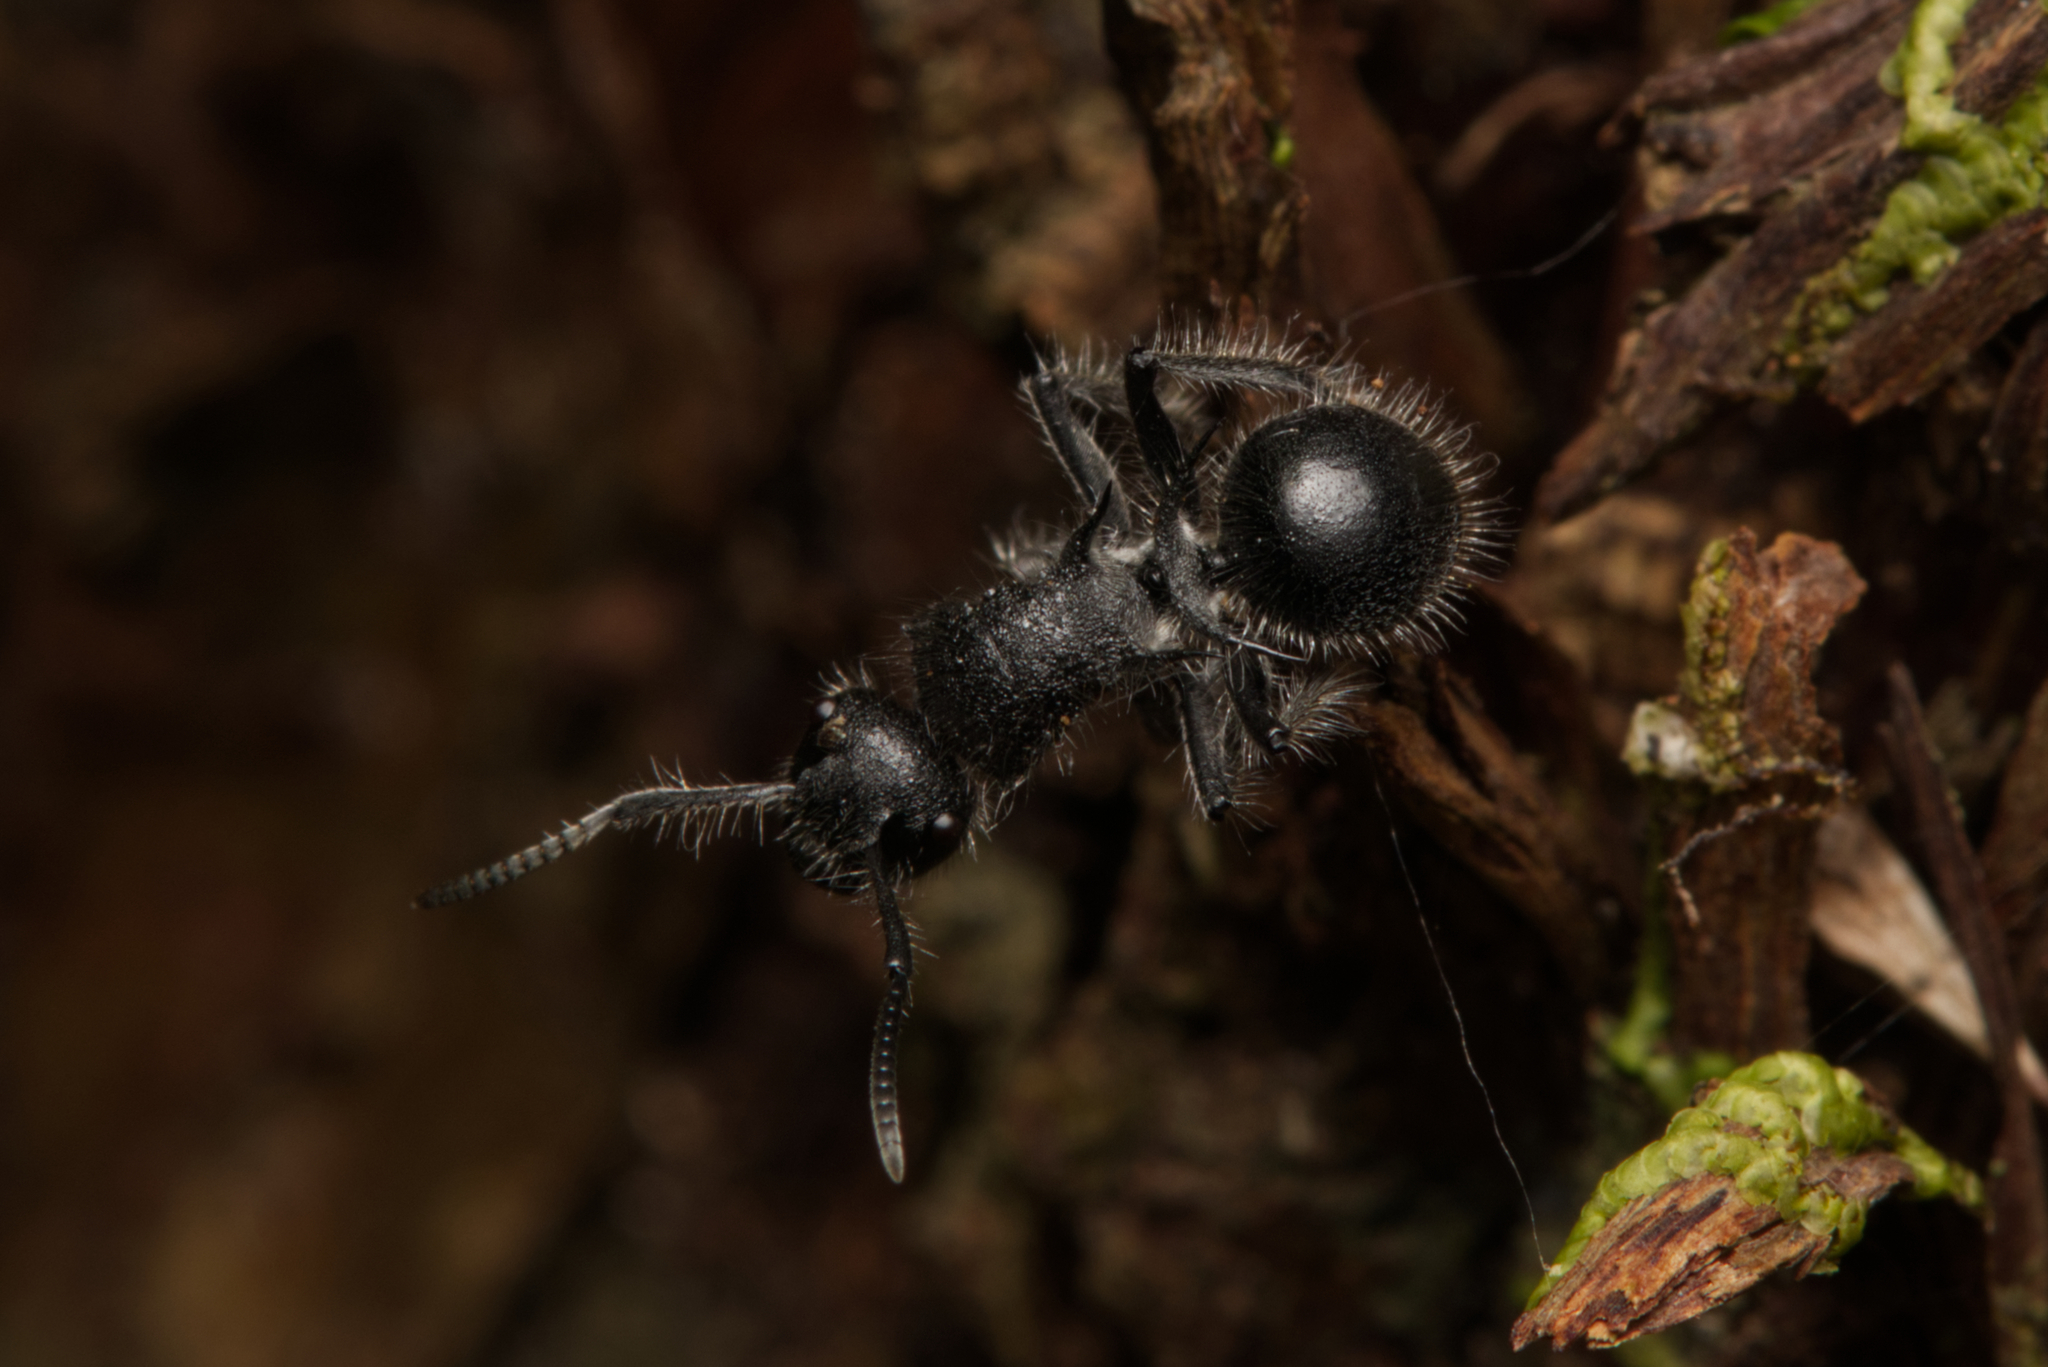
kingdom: Animalia
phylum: Arthropoda
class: Insecta
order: Hymenoptera
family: Formicidae
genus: Polyrhachis
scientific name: Polyrhachis punctiventris
